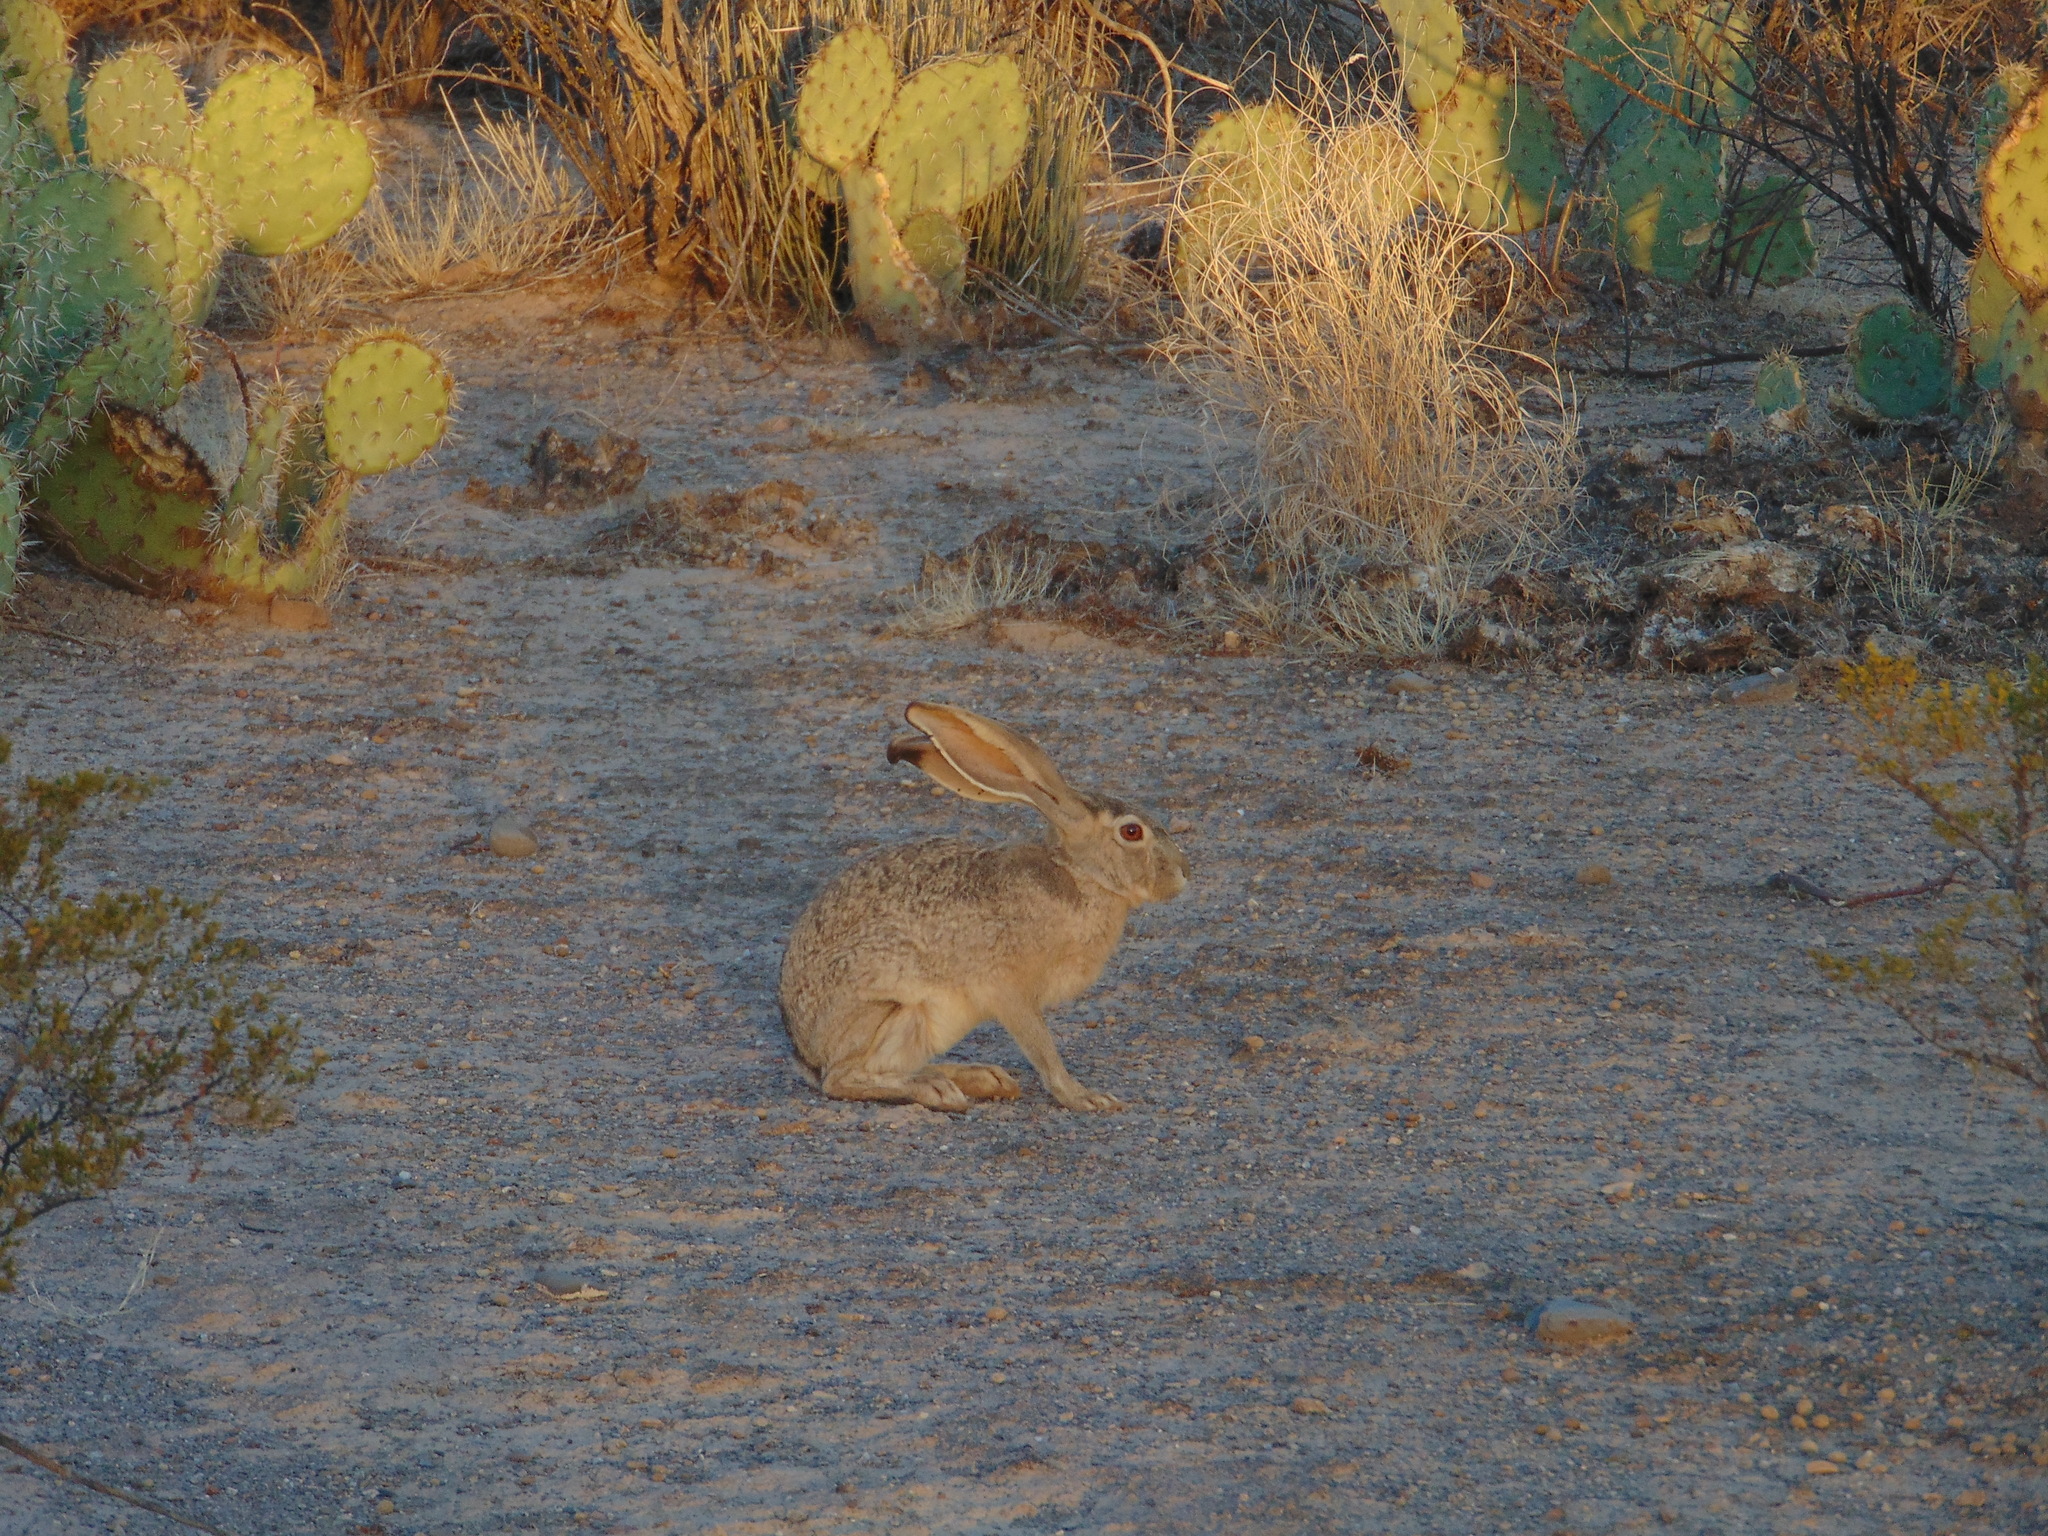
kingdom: Animalia
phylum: Chordata
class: Mammalia
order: Lagomorpha
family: Leporidae
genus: Lepus
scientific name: Lepus californicus
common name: Black-tailed jackrabbit
